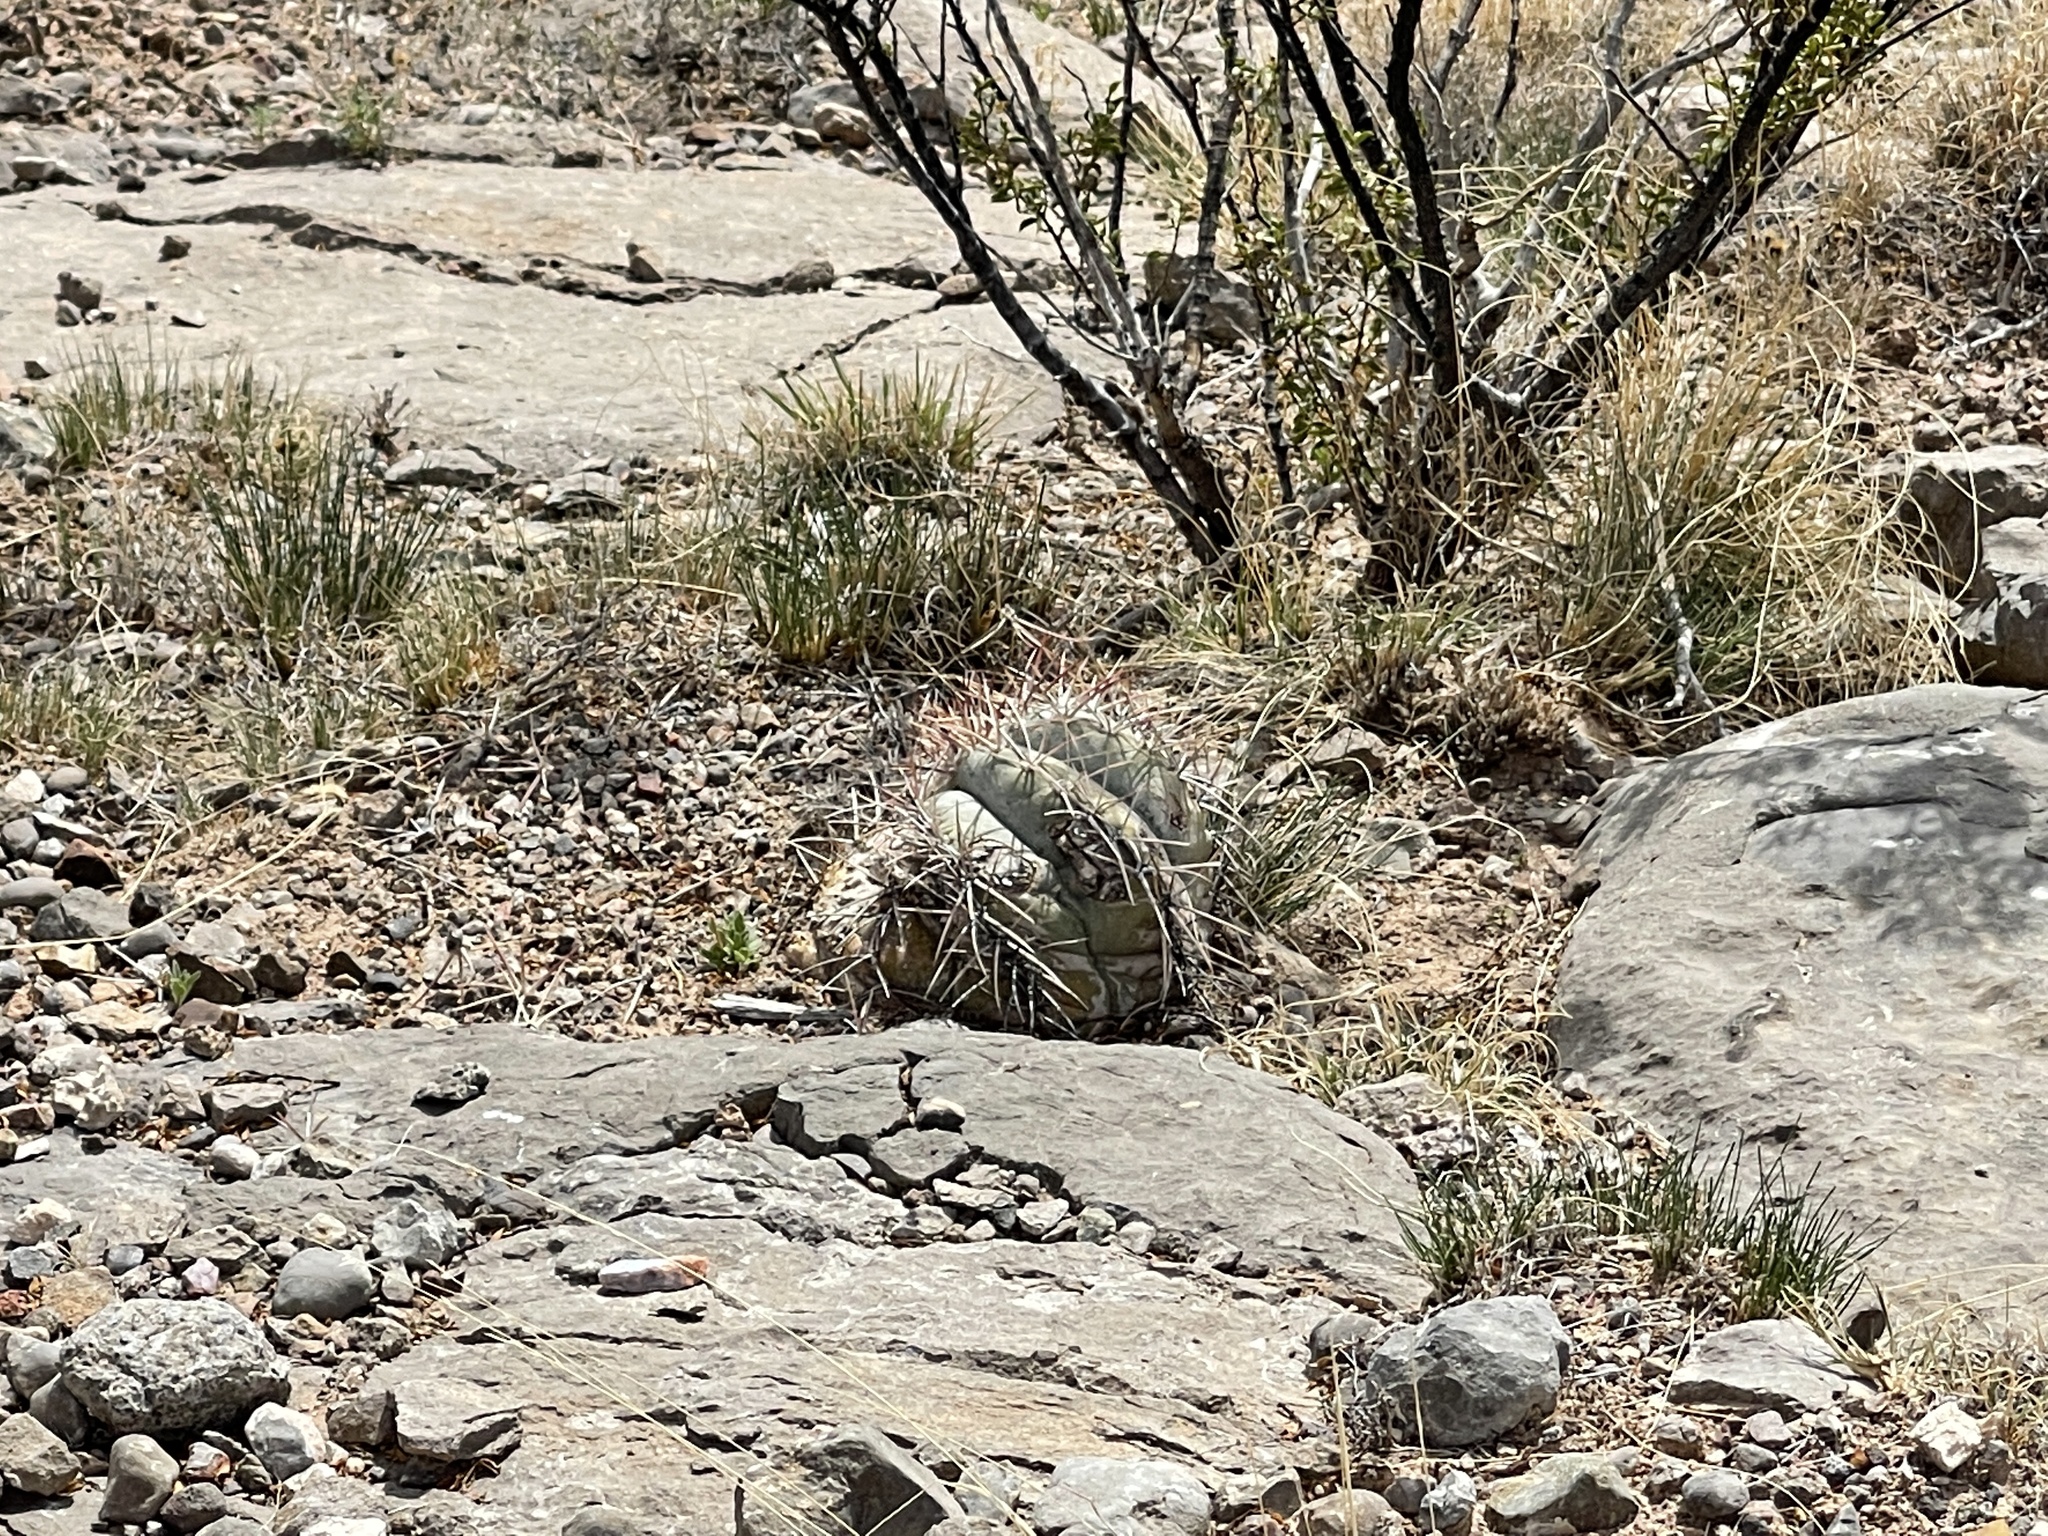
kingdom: Plantae
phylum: Tracheophyta
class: Magnoliopsida
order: Caryophyllales
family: Cactaceae
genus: Echinocactus
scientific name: Echinocactus horizonthalonius
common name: Devilshead
